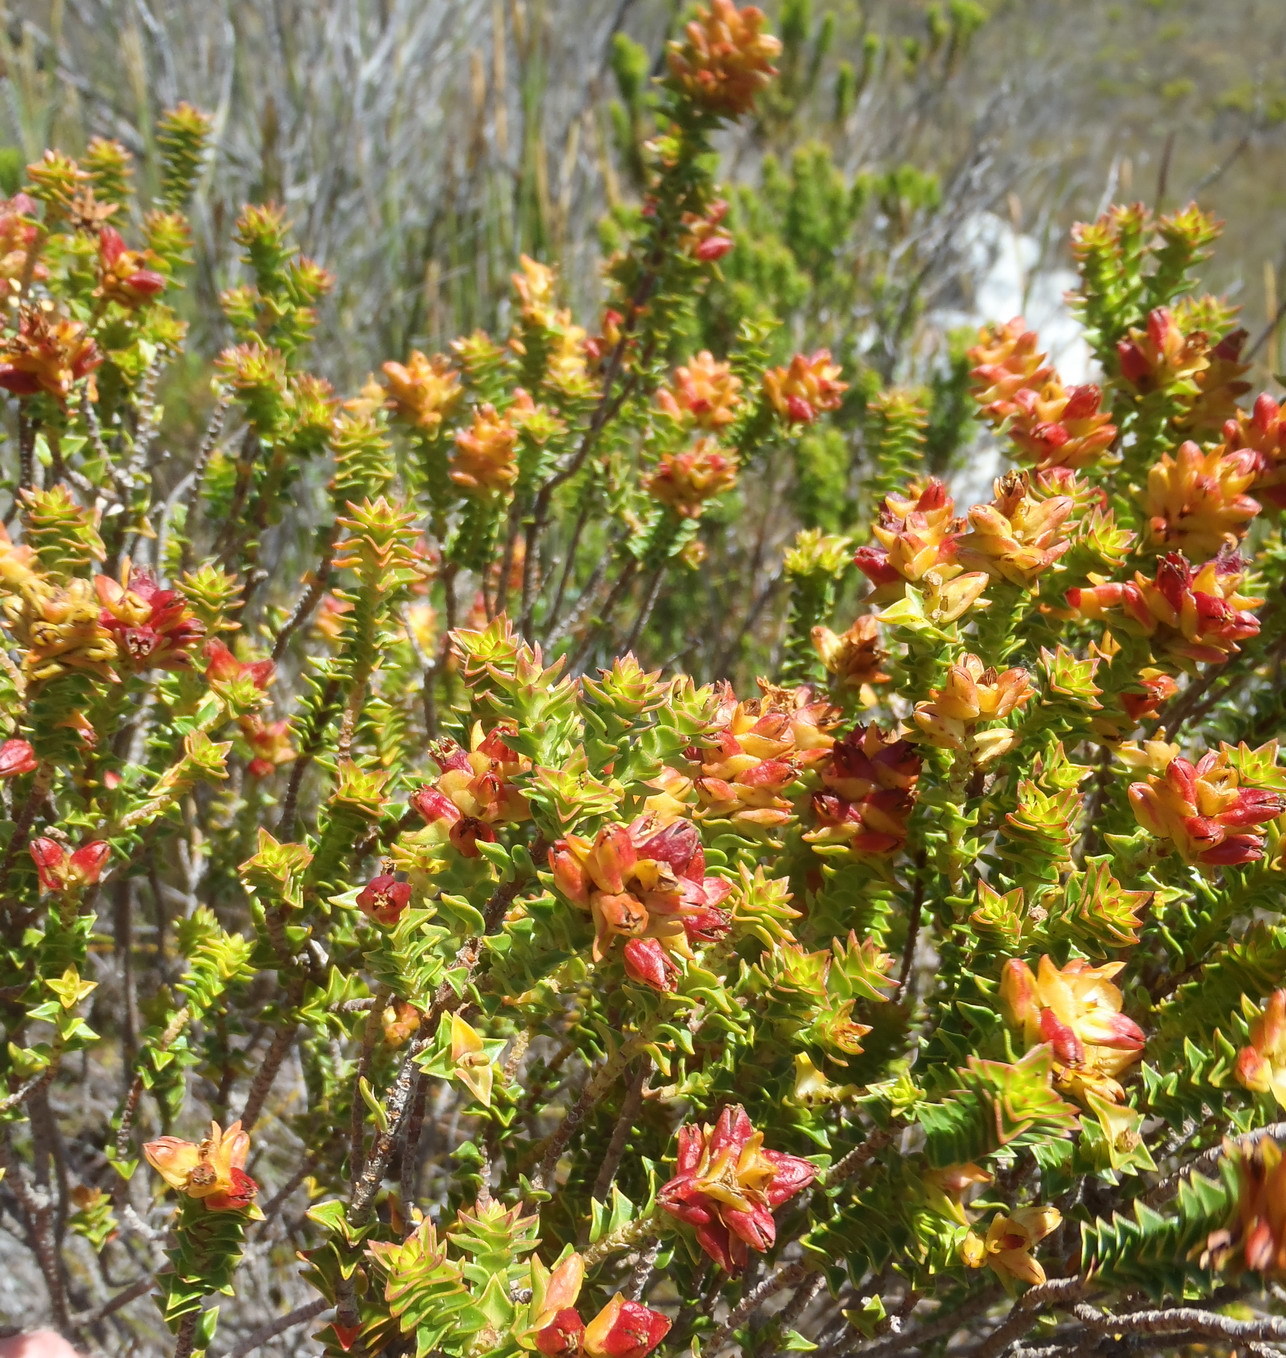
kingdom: Plantae
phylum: Tracheophyta
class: Magnoliopsida
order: Myrtales
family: Penaeaceae
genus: Penaea
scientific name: Penaea mucronata
